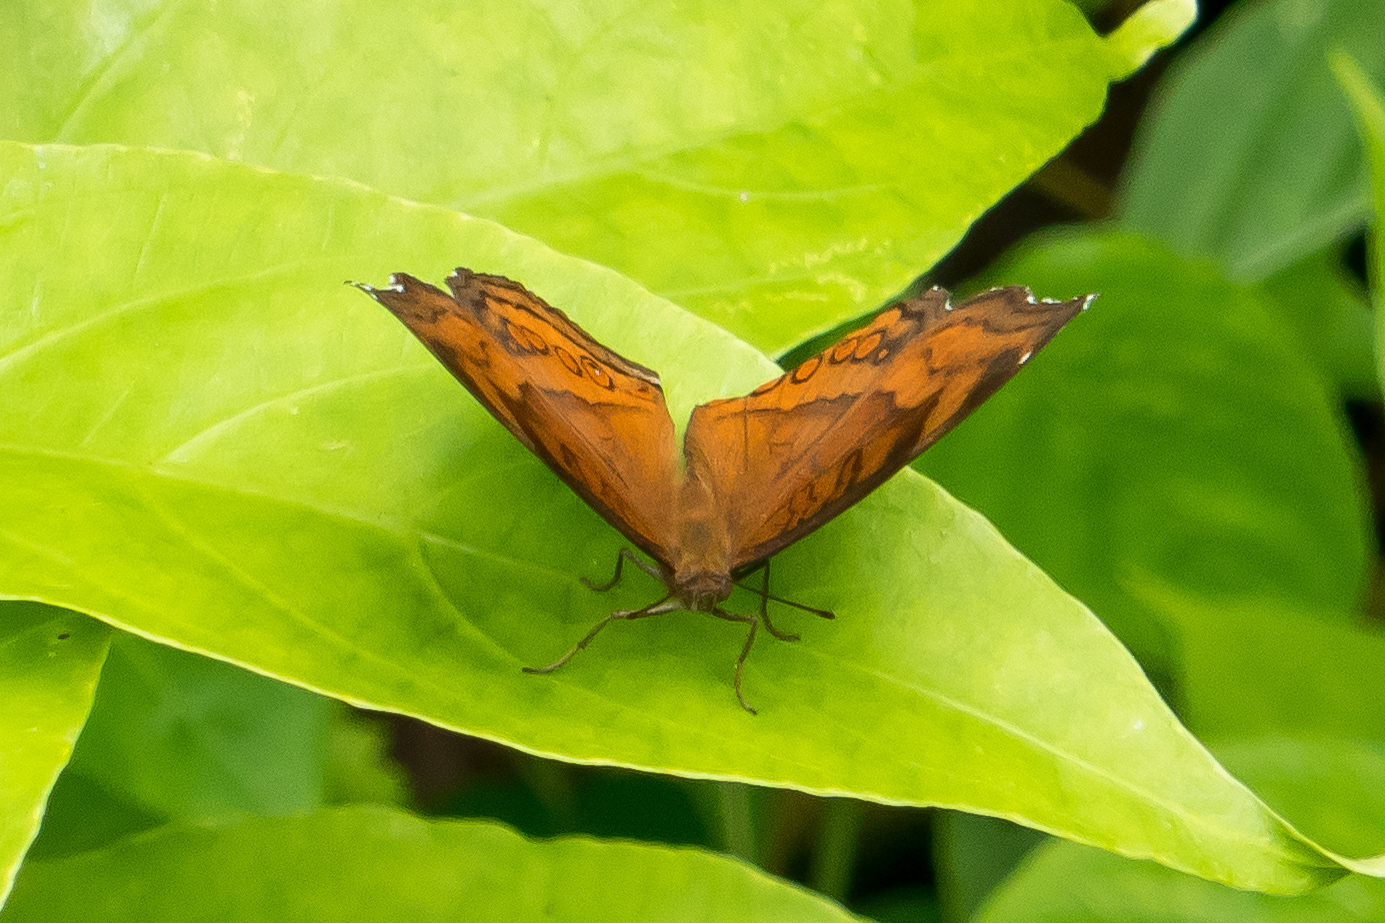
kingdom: Animalia
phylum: Arthropoda
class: Insecta
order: Lepidoptera
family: Nymphalidae
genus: Junonia
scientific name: Junonia hedonia
